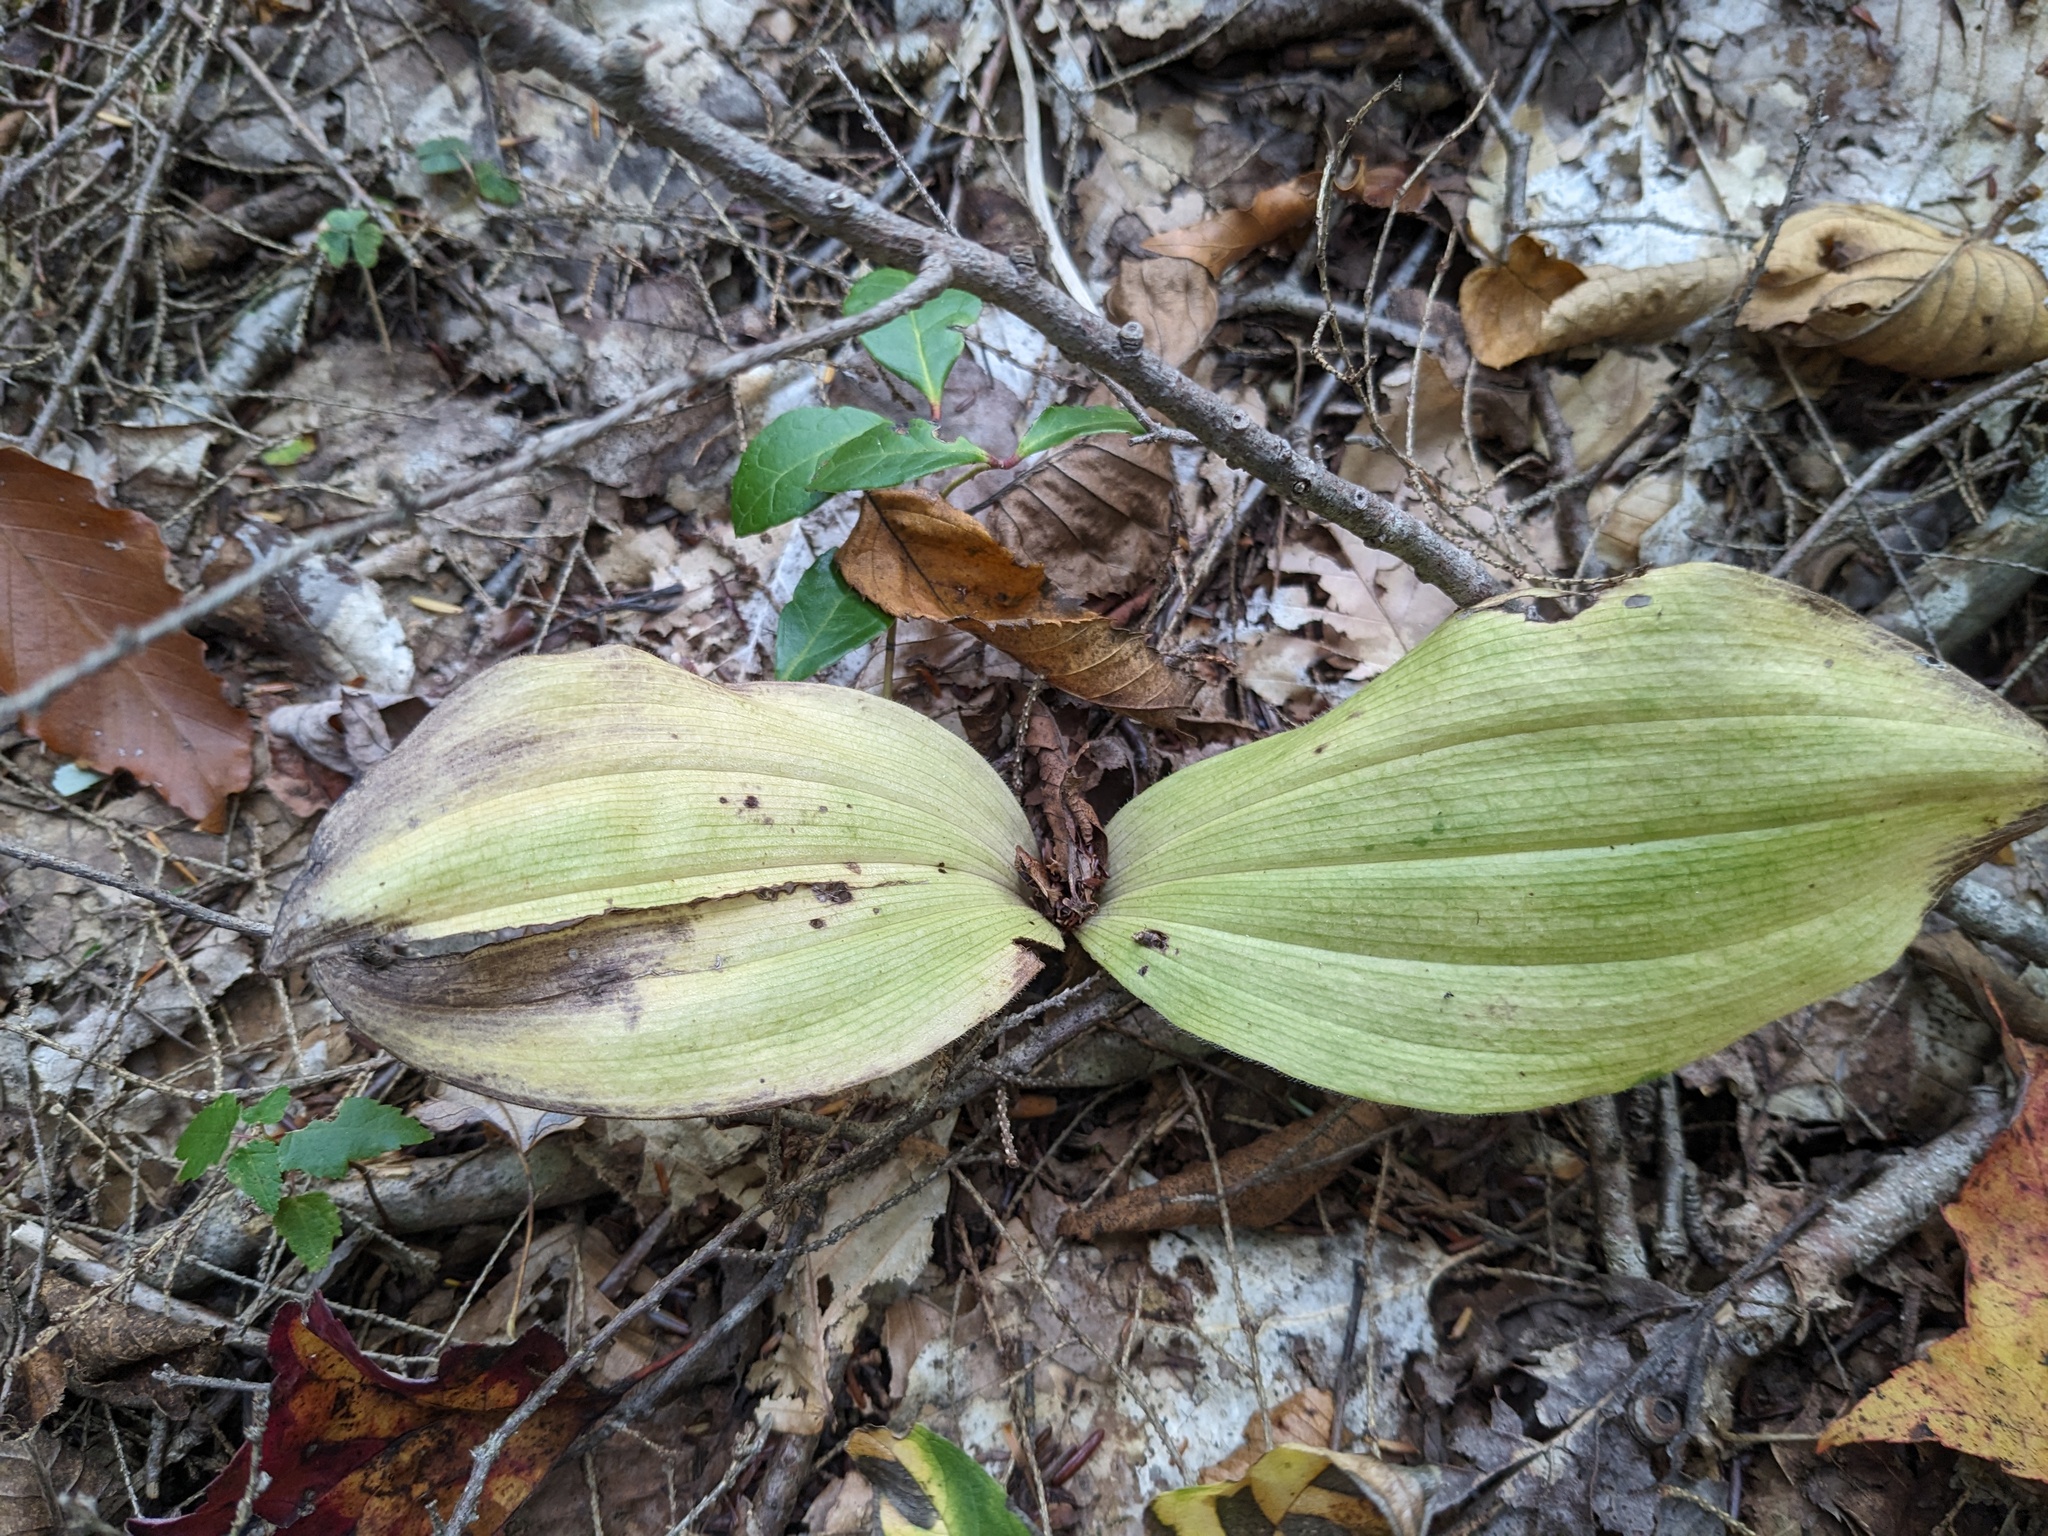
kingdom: Plantae
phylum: Tracheophyta
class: Liliopsida
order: Asparagales
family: Orchidaceae
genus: Cypripedium
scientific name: Cypripedium acaule
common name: Pink lady's-slipper
